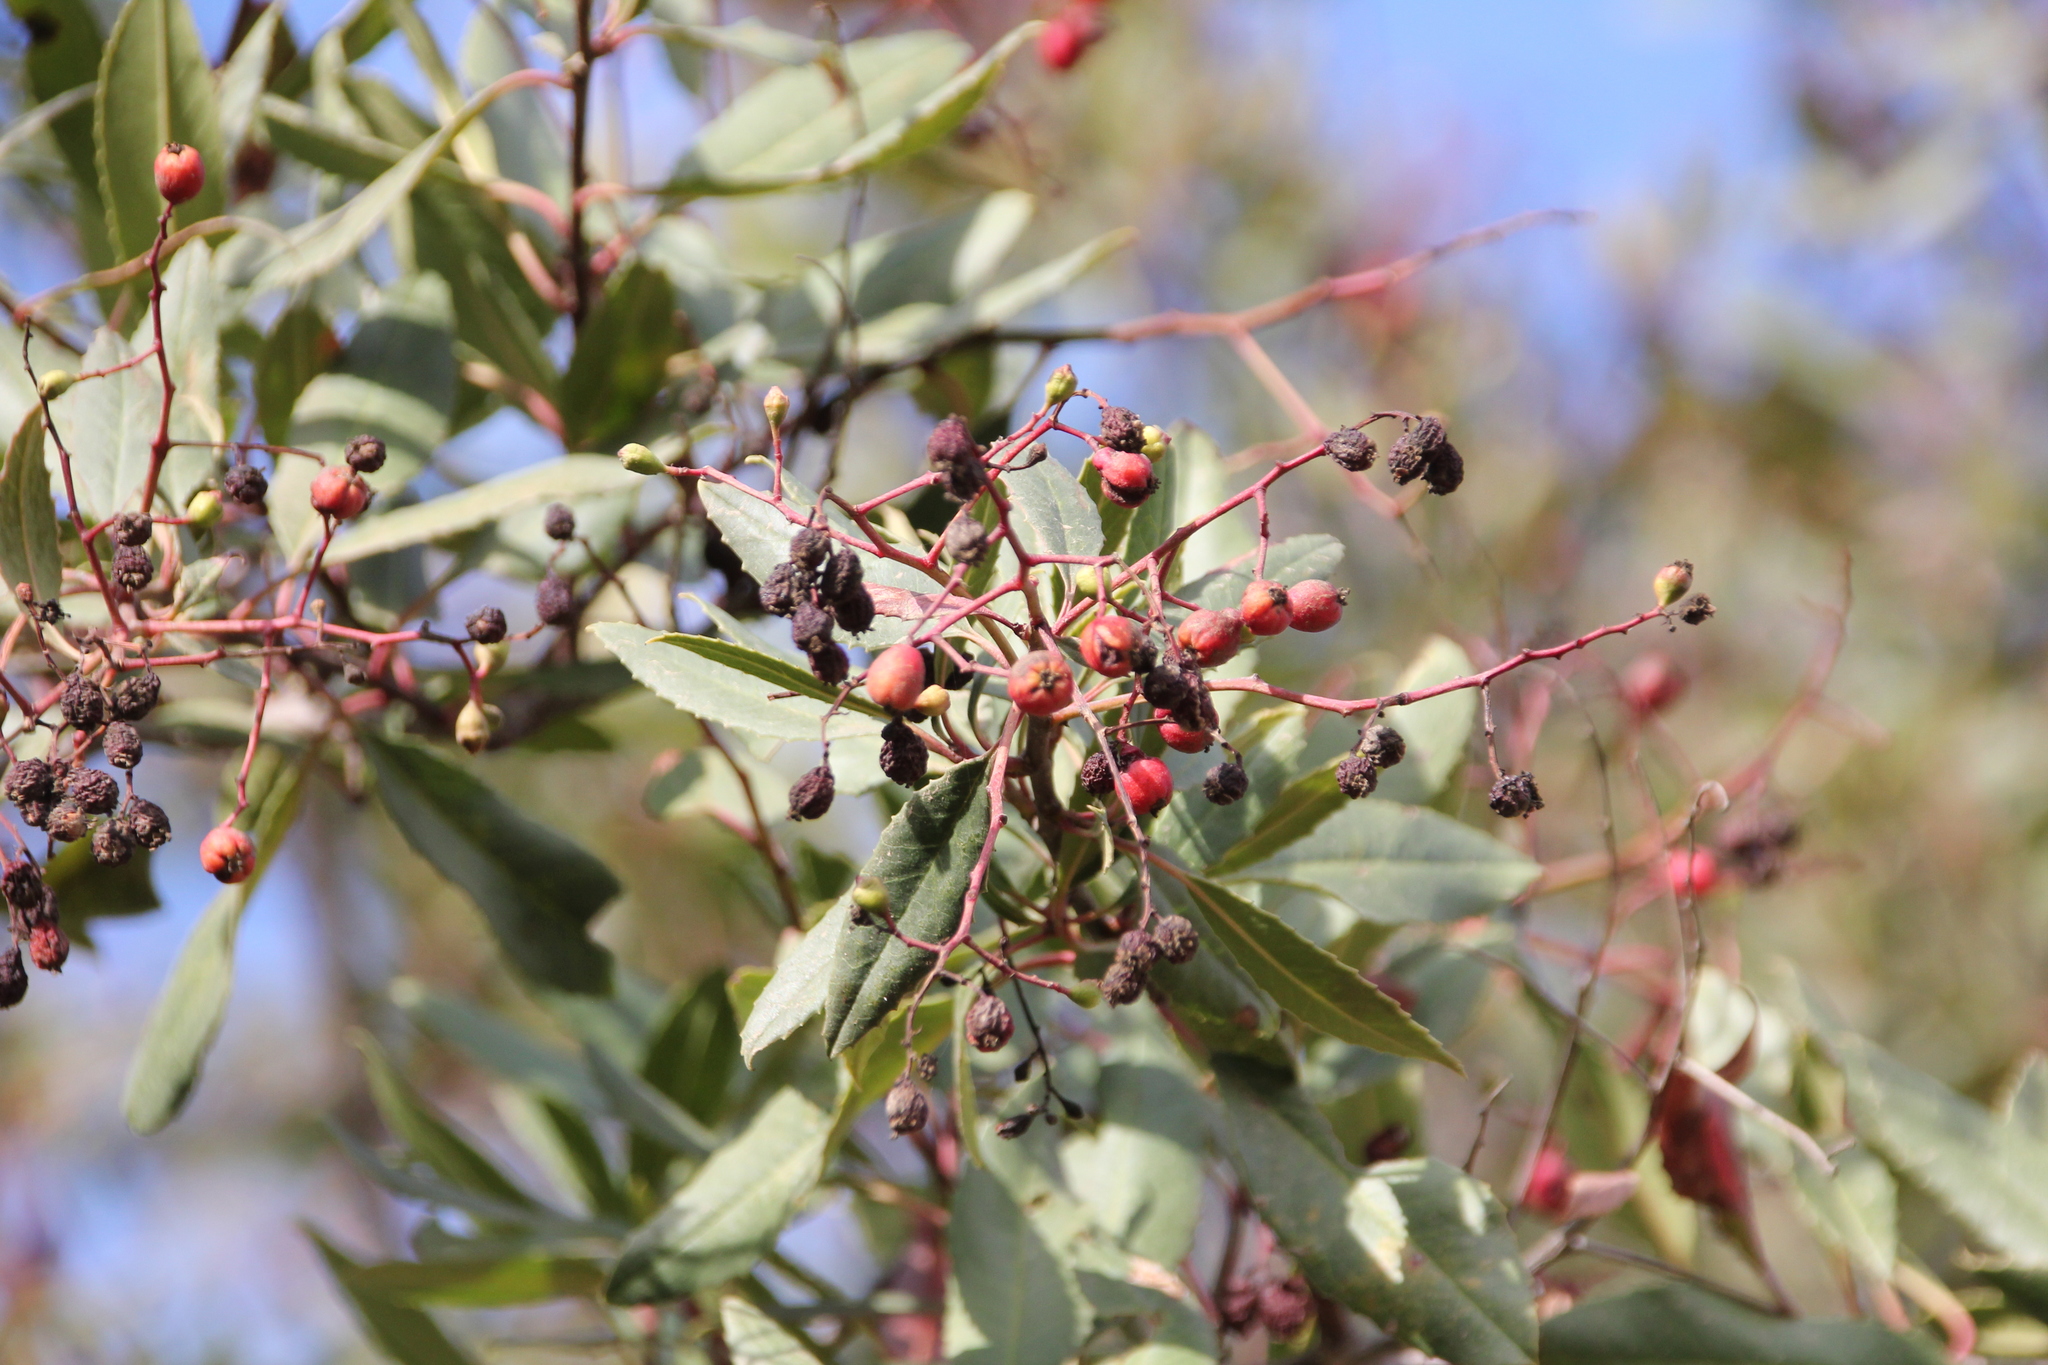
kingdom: Plantae
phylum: Tracheophyta
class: Magnoliopsida
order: Rosales
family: Rosaceae
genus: Heteromeles
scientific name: Heteromeles arbutifolia
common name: California-holly
